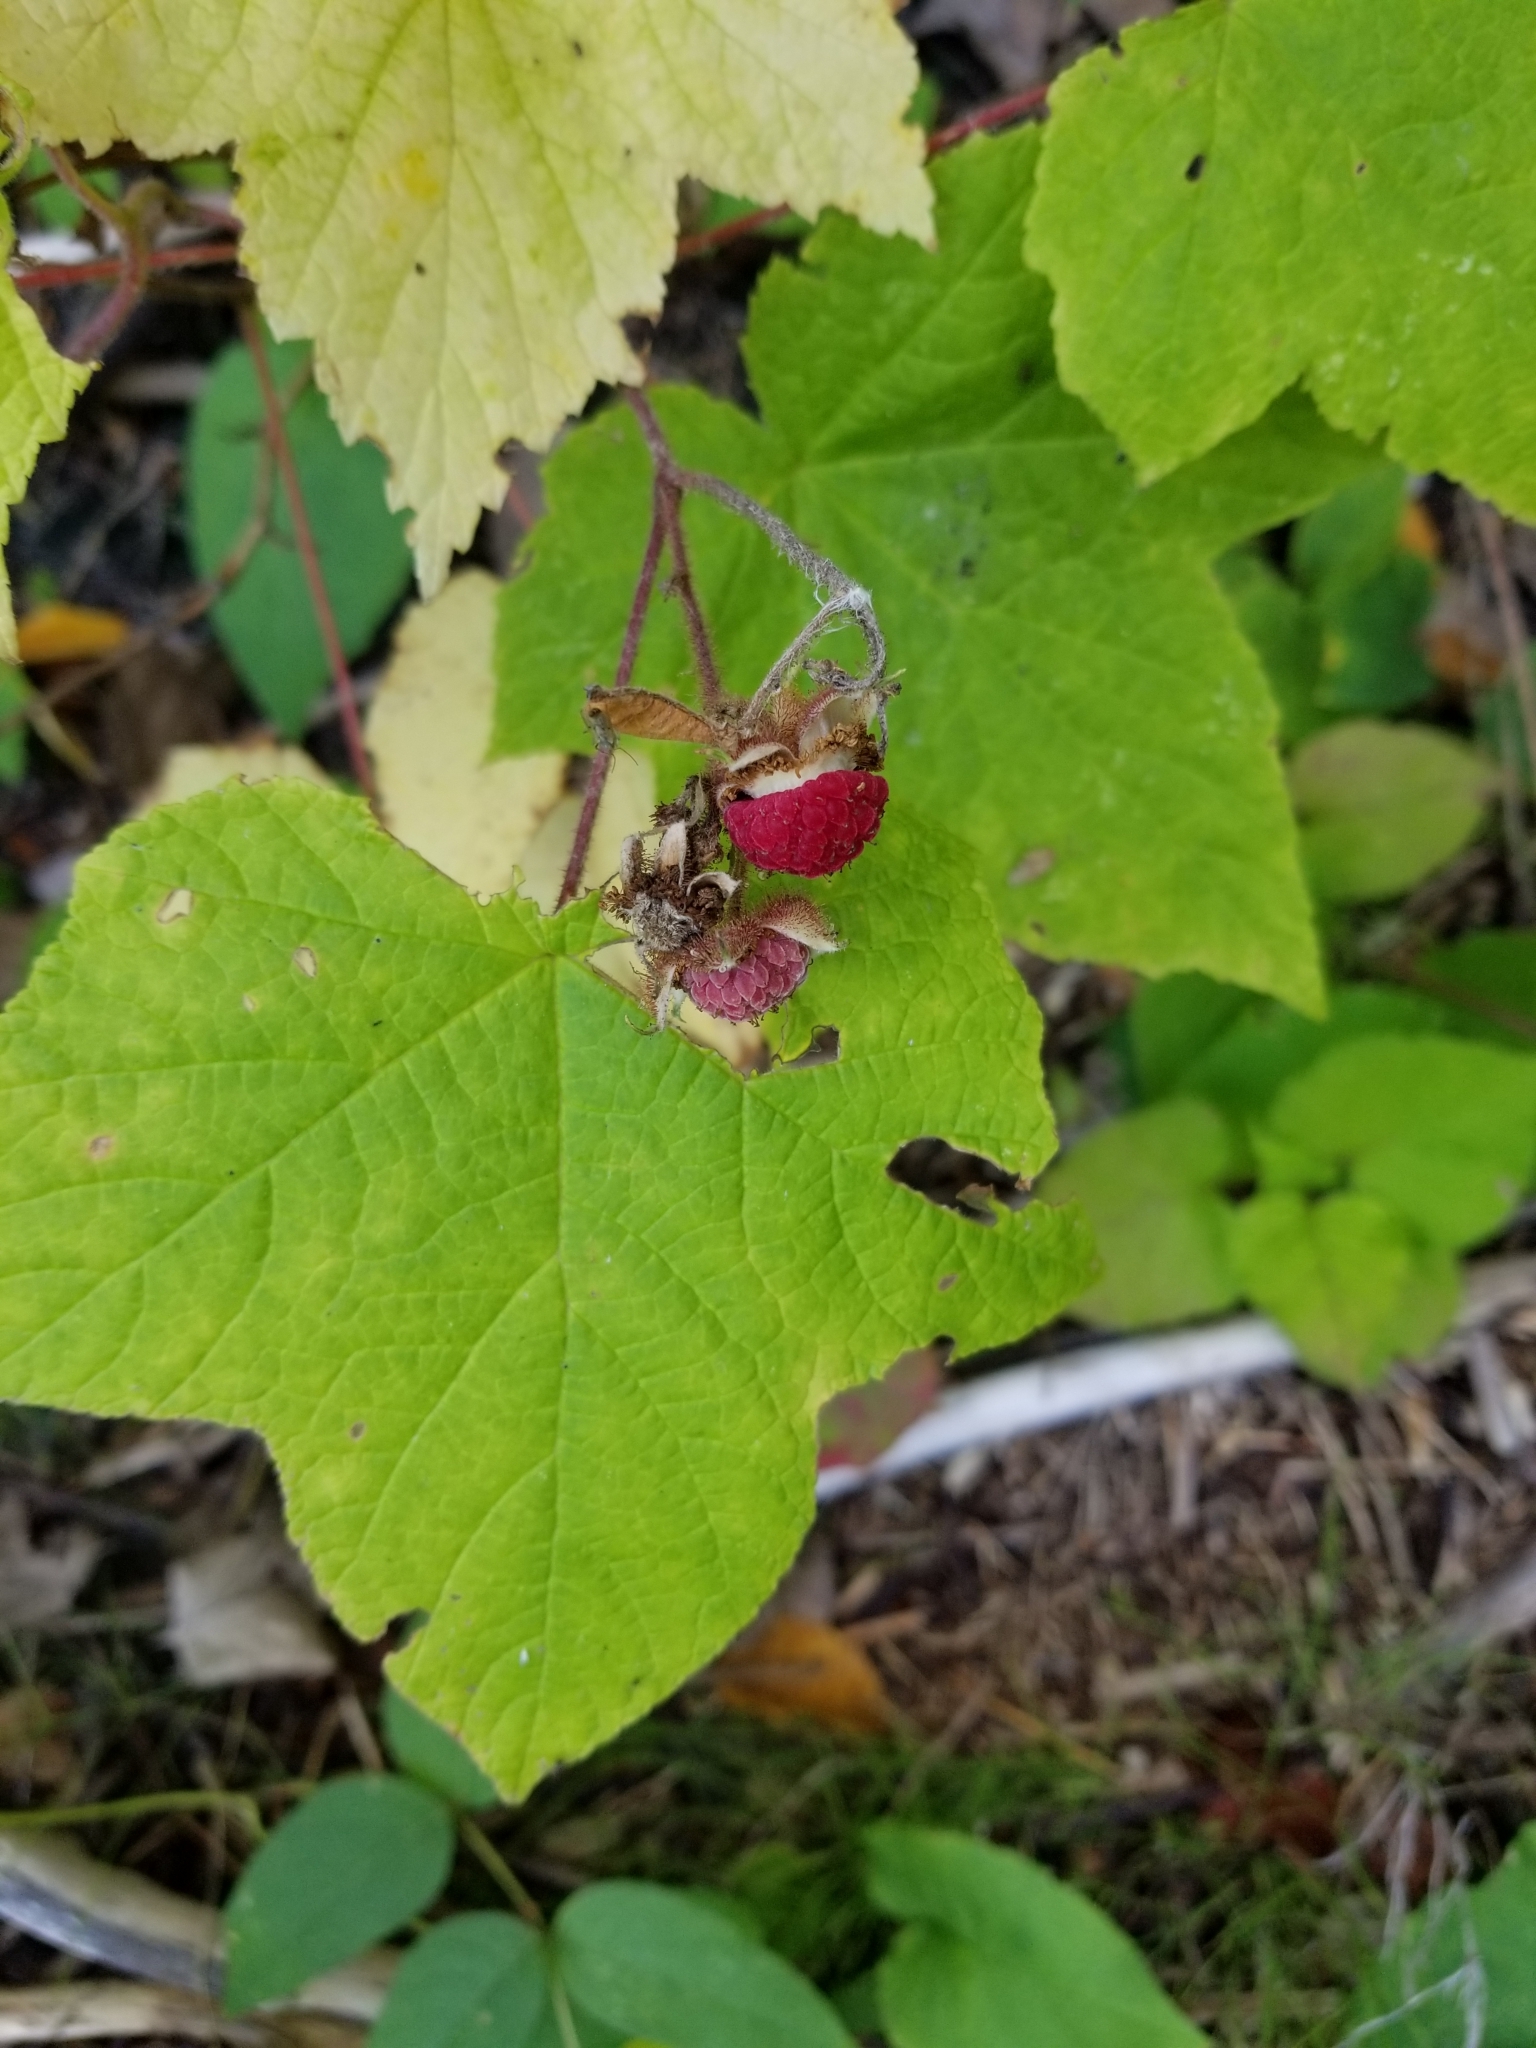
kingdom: Plantae
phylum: Tracheophyta
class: Magnoliopsida
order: Rosales
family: Rosaceae
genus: Rubus
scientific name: Rubus odoratus
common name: Purple-flowered raspberry
